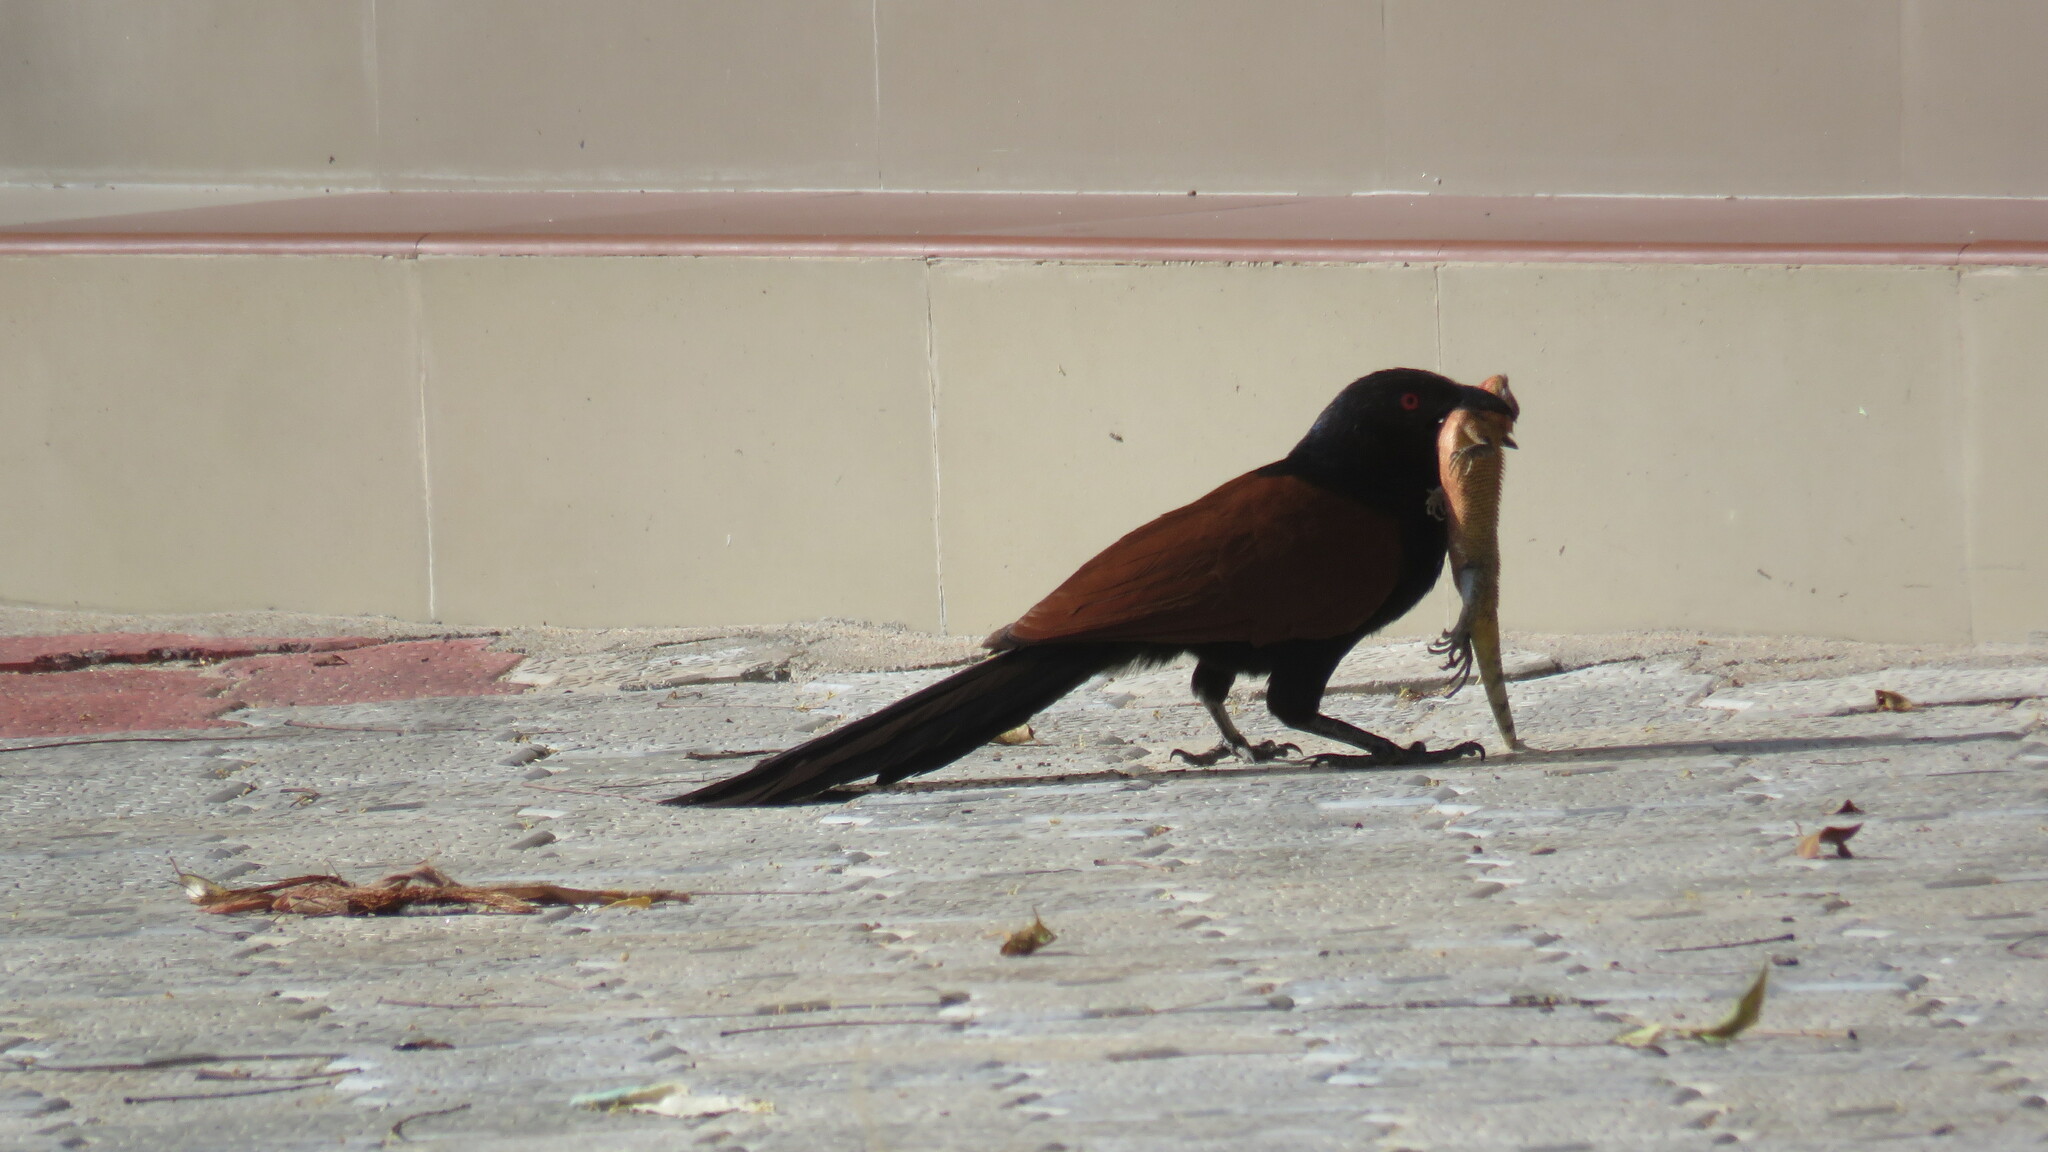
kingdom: Animalia
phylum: Chordata
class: Aves
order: Cuculiformes
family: Cuculidae
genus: Centropus
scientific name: Centropus sinensis
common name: Greater coucal
